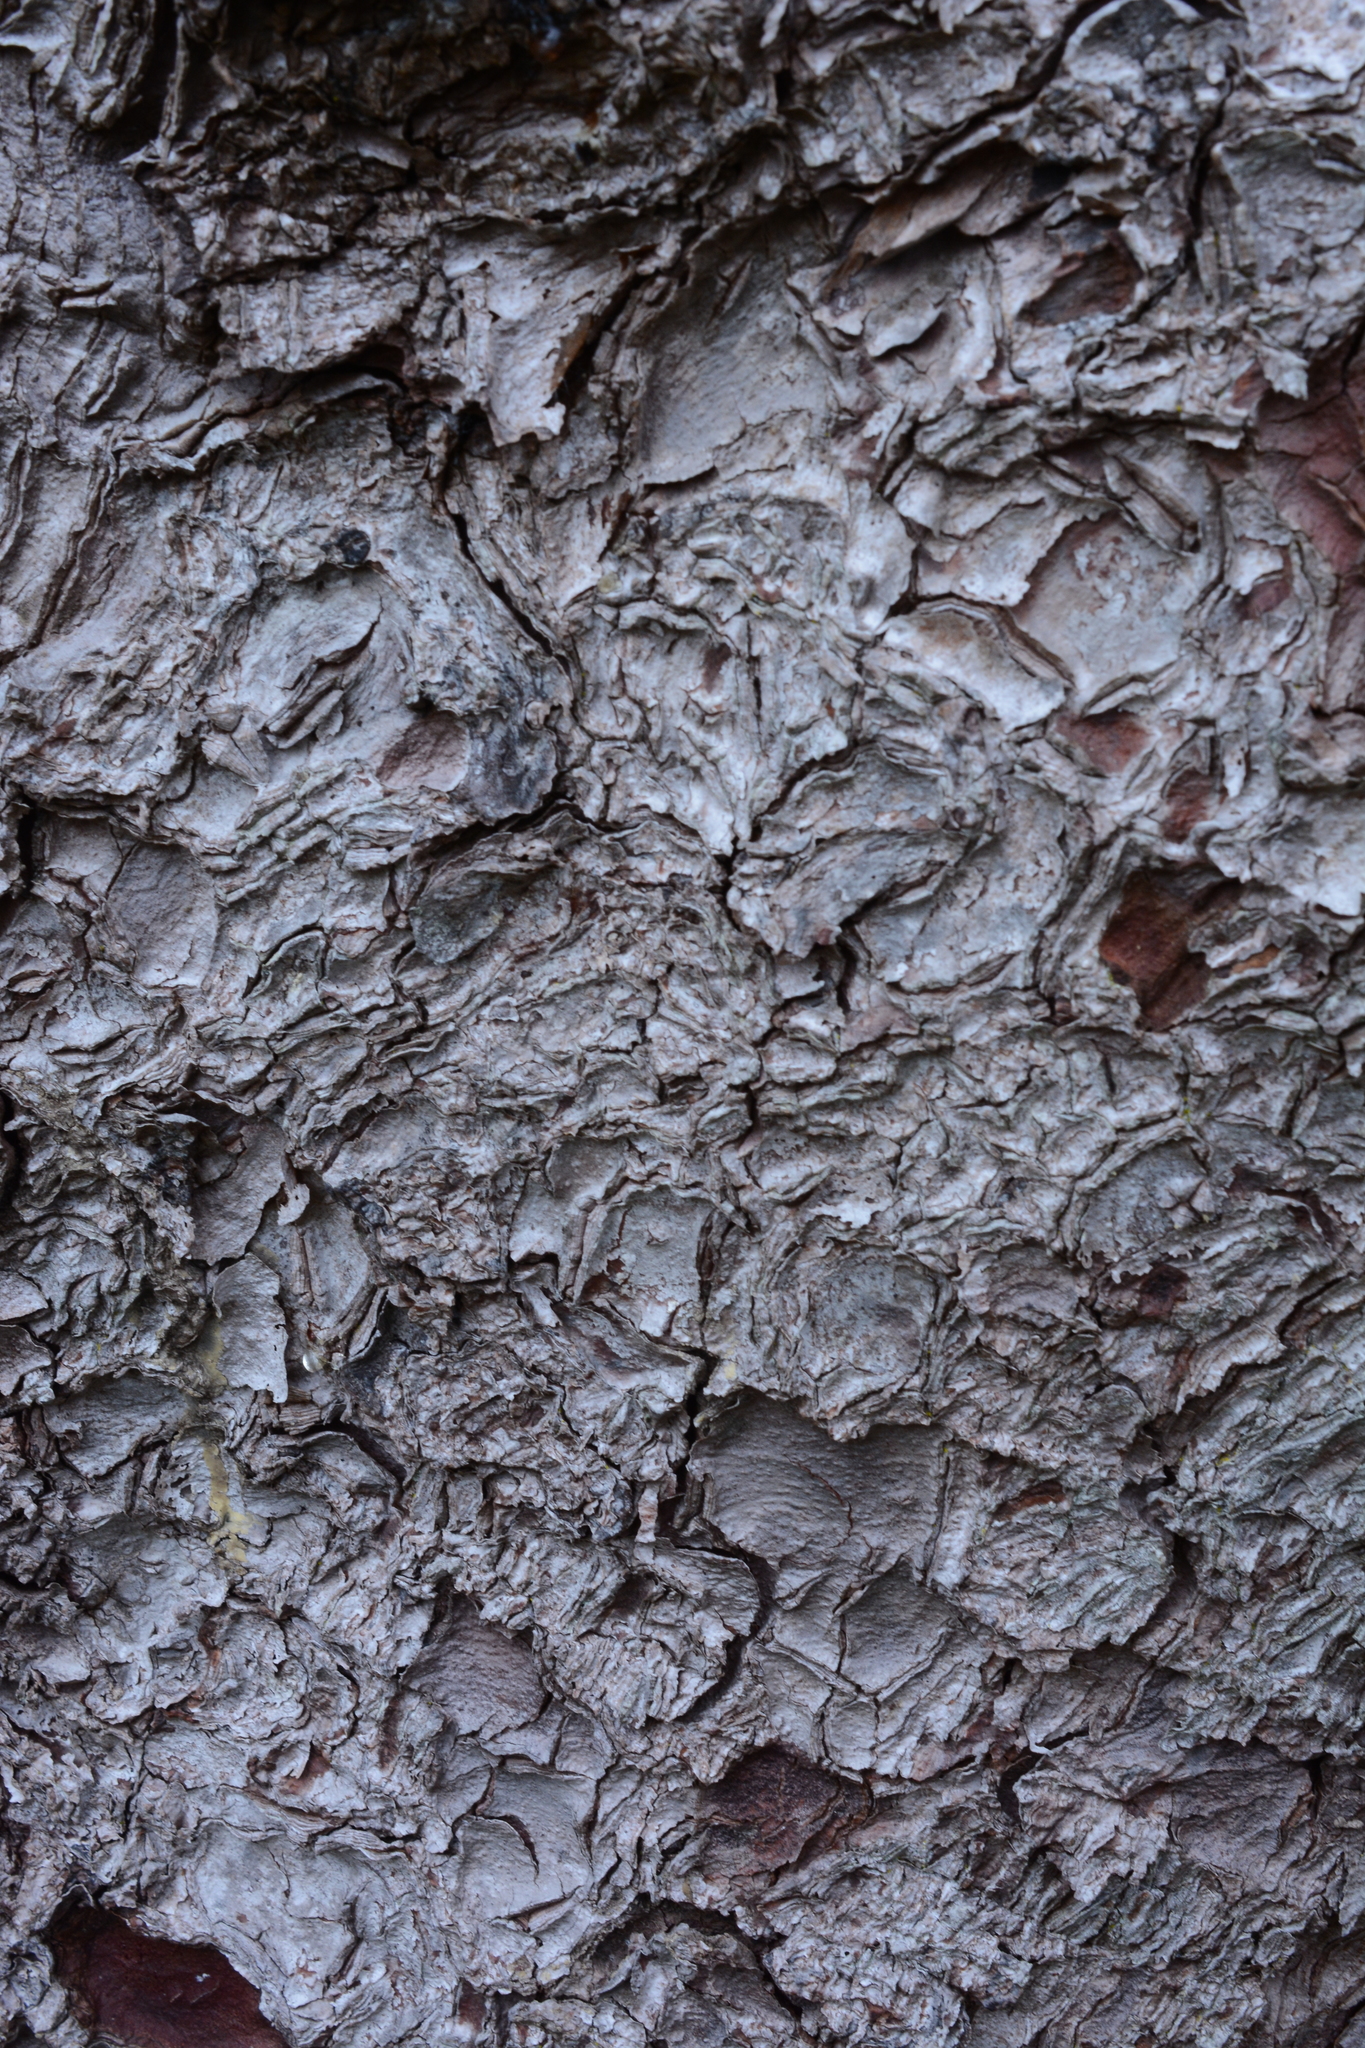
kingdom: Plantae
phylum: Tracheophyta
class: Pinopsida
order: Pinales
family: Pinaceae
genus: Picea
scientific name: Picea sitchensis
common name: Sitka spruce
